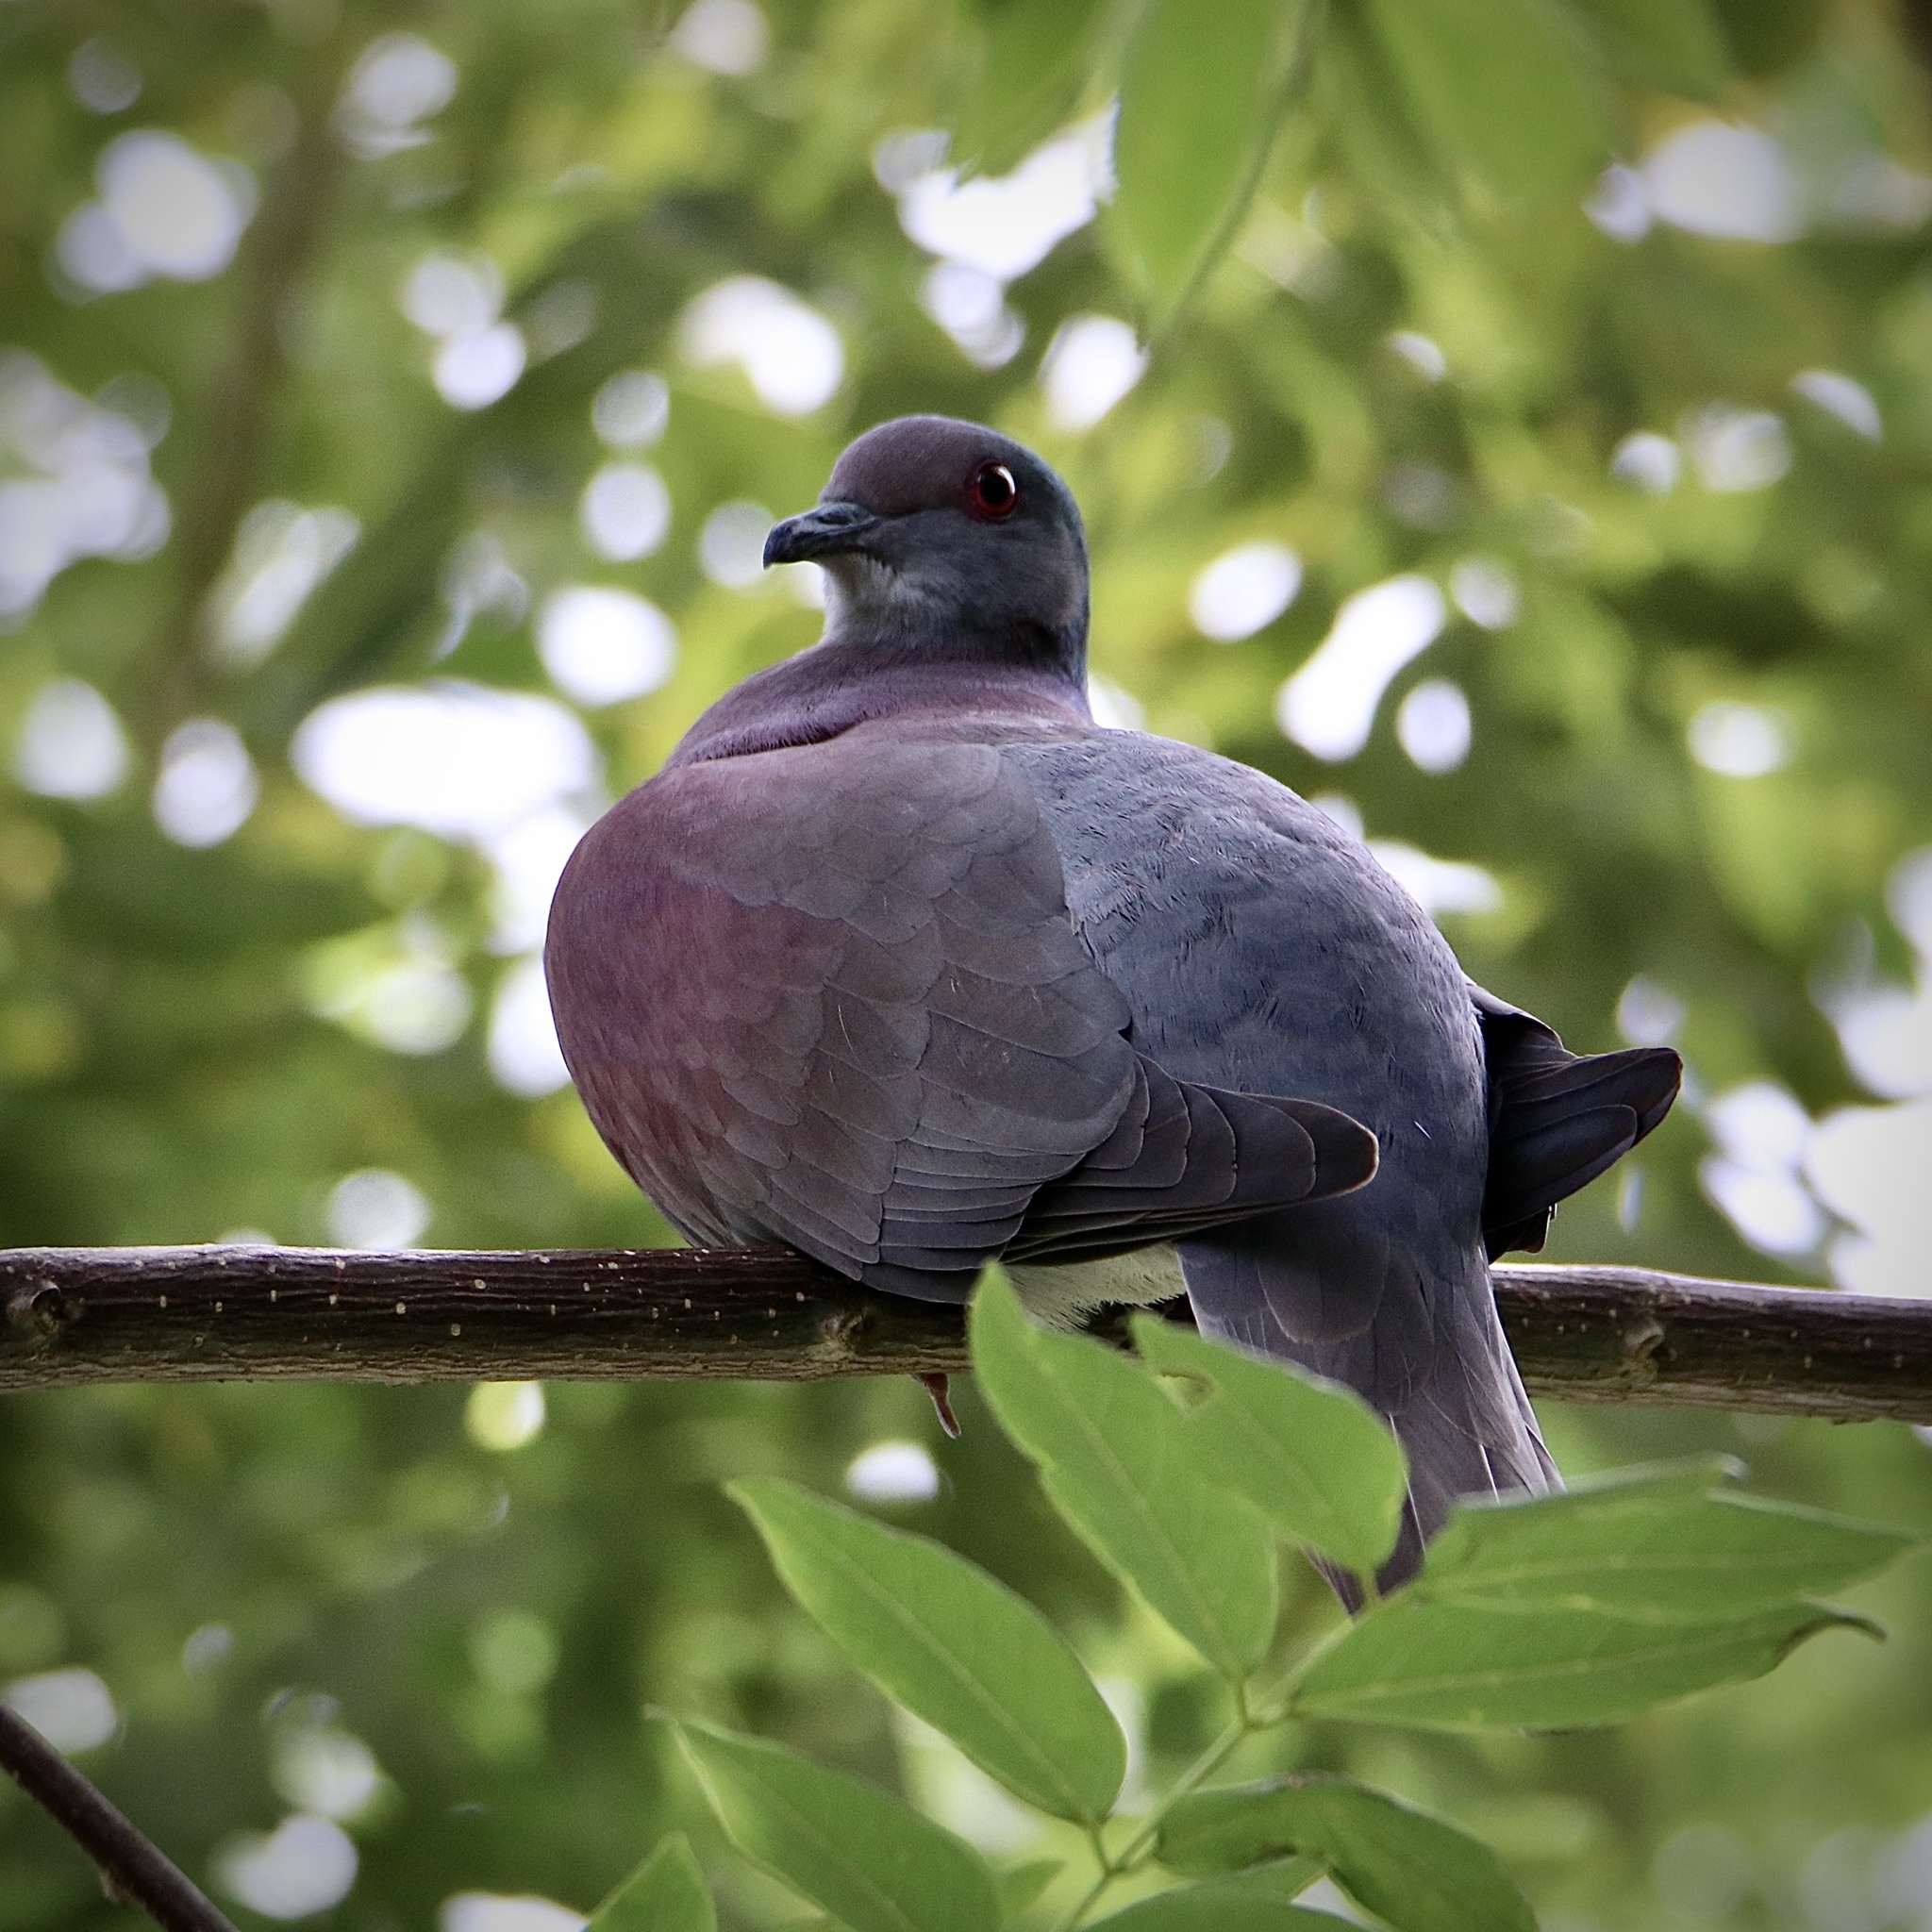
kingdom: Animalia
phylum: Chordata
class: Aves
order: Columbiformes
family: Columbidae
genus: Patagioenas
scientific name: Patagioenas cayennensis
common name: Pale-vented pigeon
